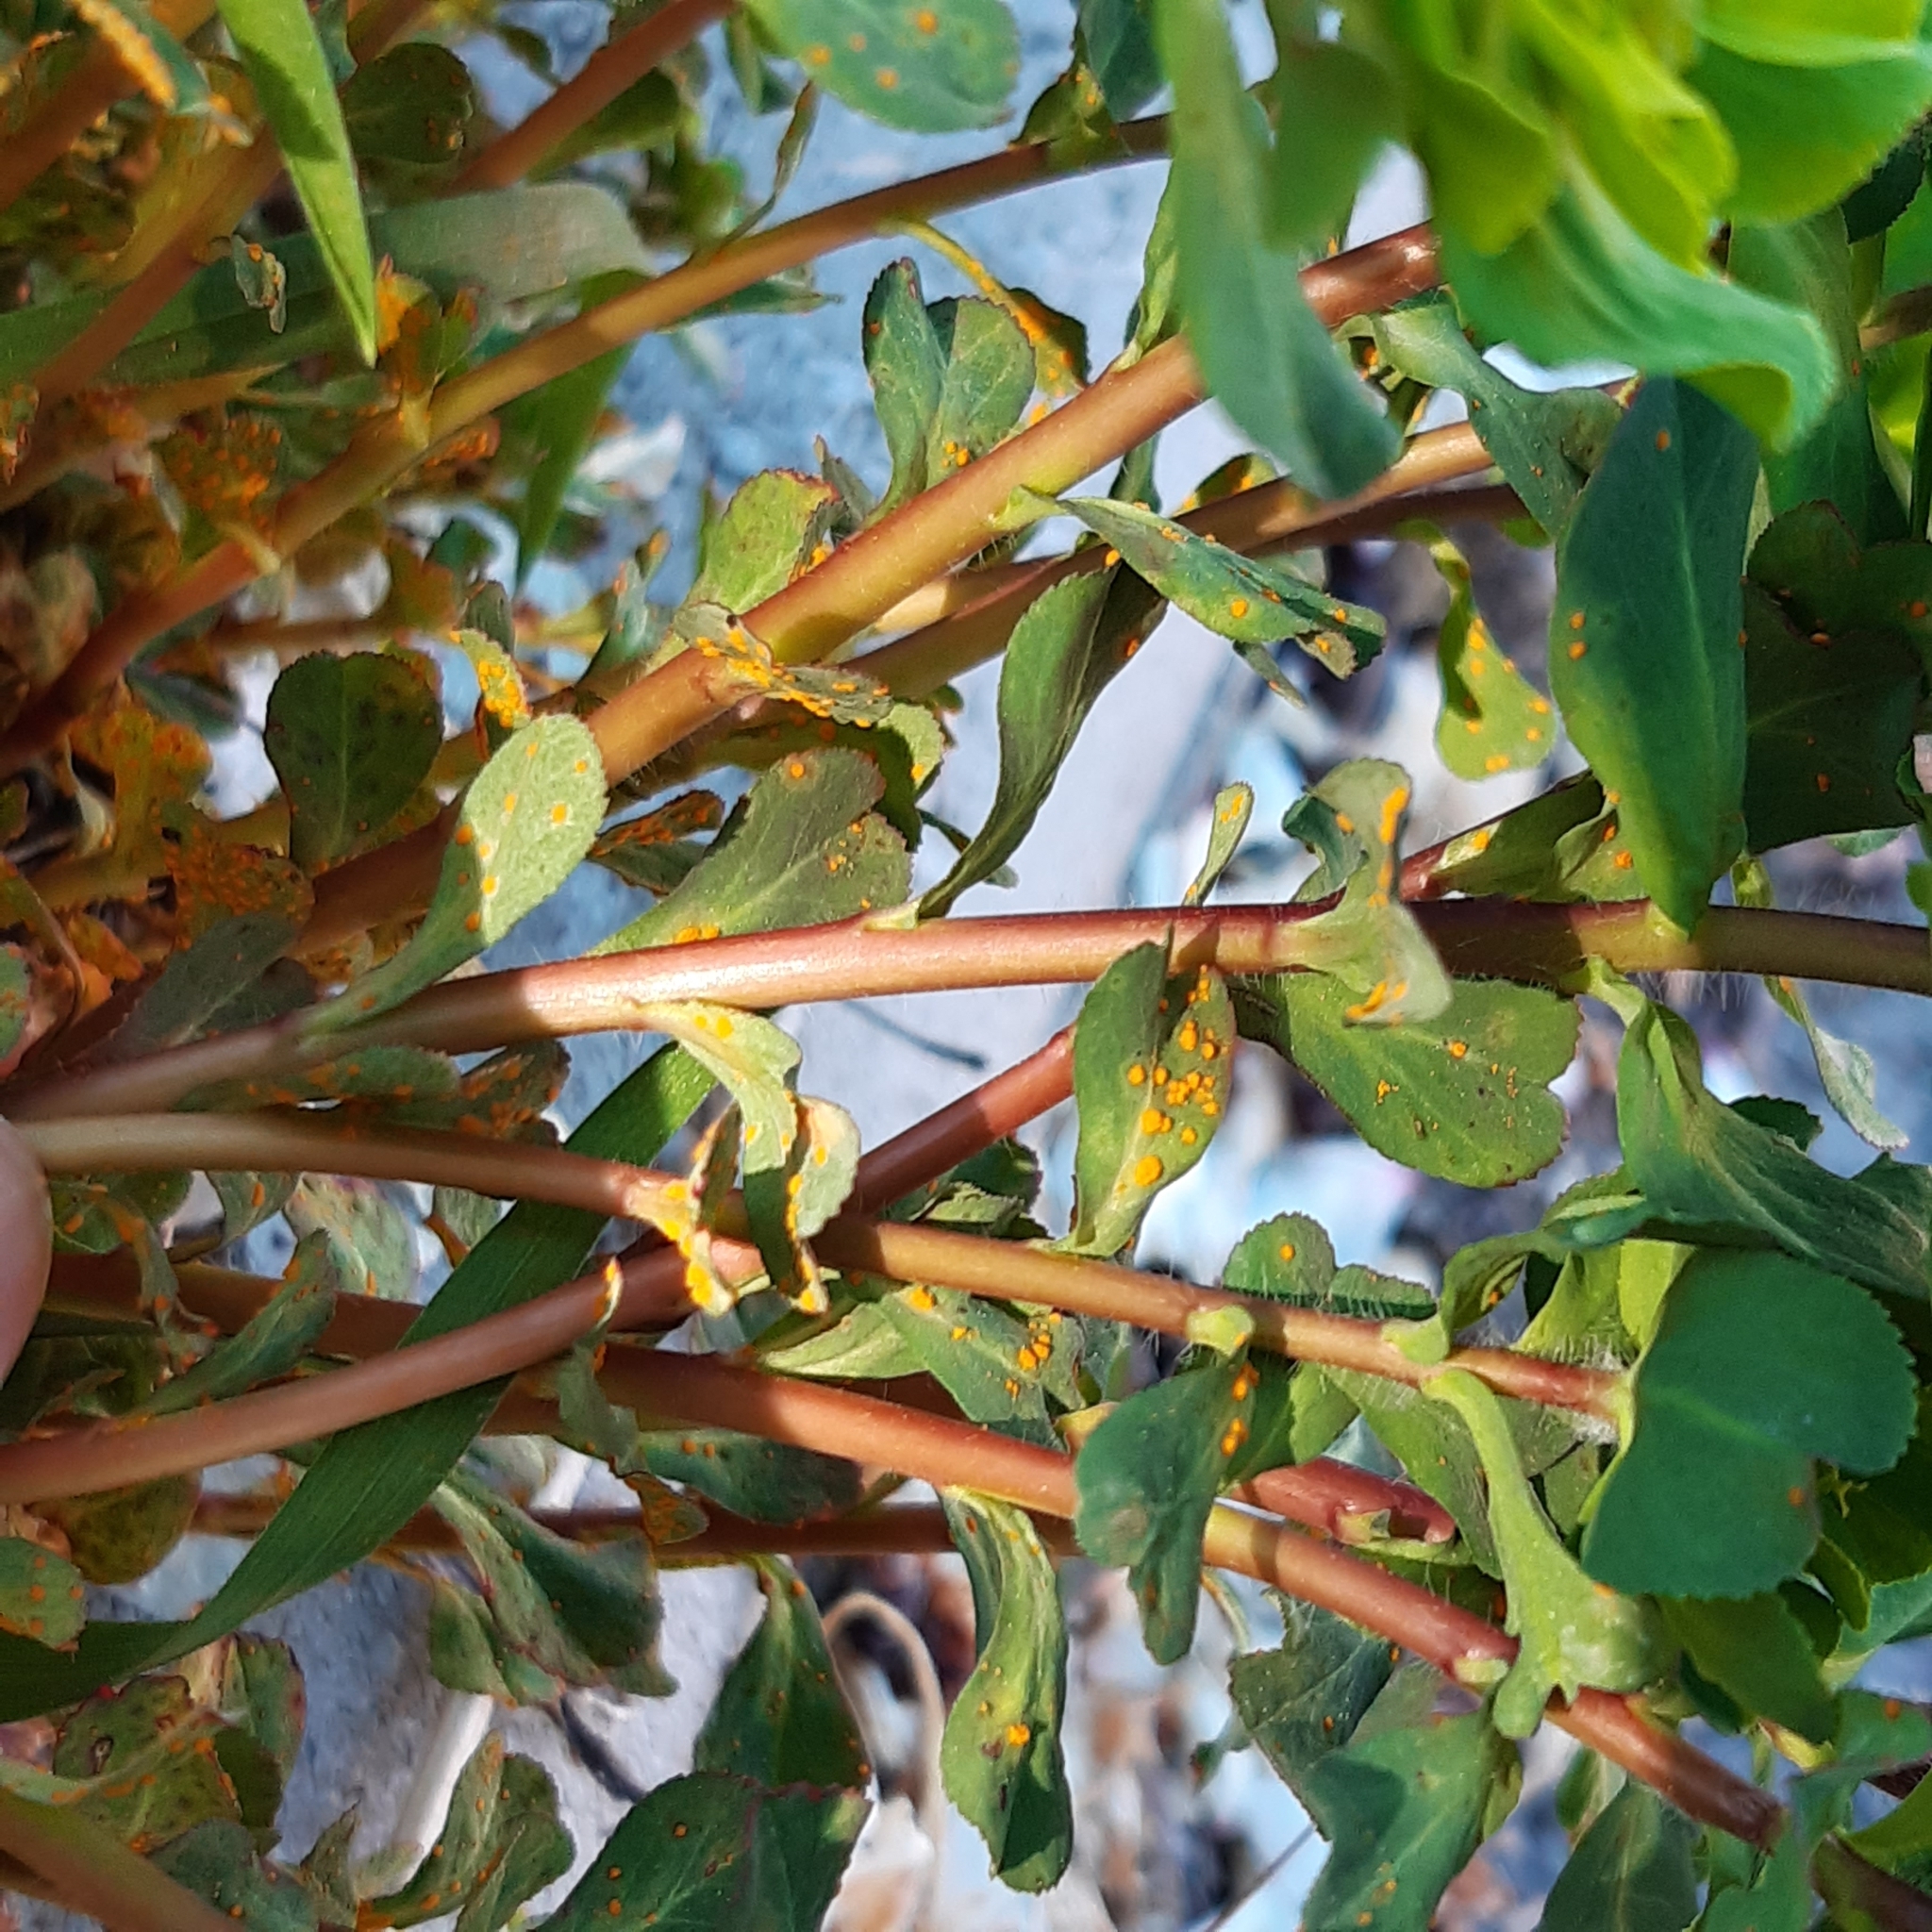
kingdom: Plantae
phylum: Tracheophyta
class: Magnoliopsida
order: Malpighiales
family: Euphorbiaceae
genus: Euphorbia
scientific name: Euphorbia helioscopia
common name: Sun spurge
